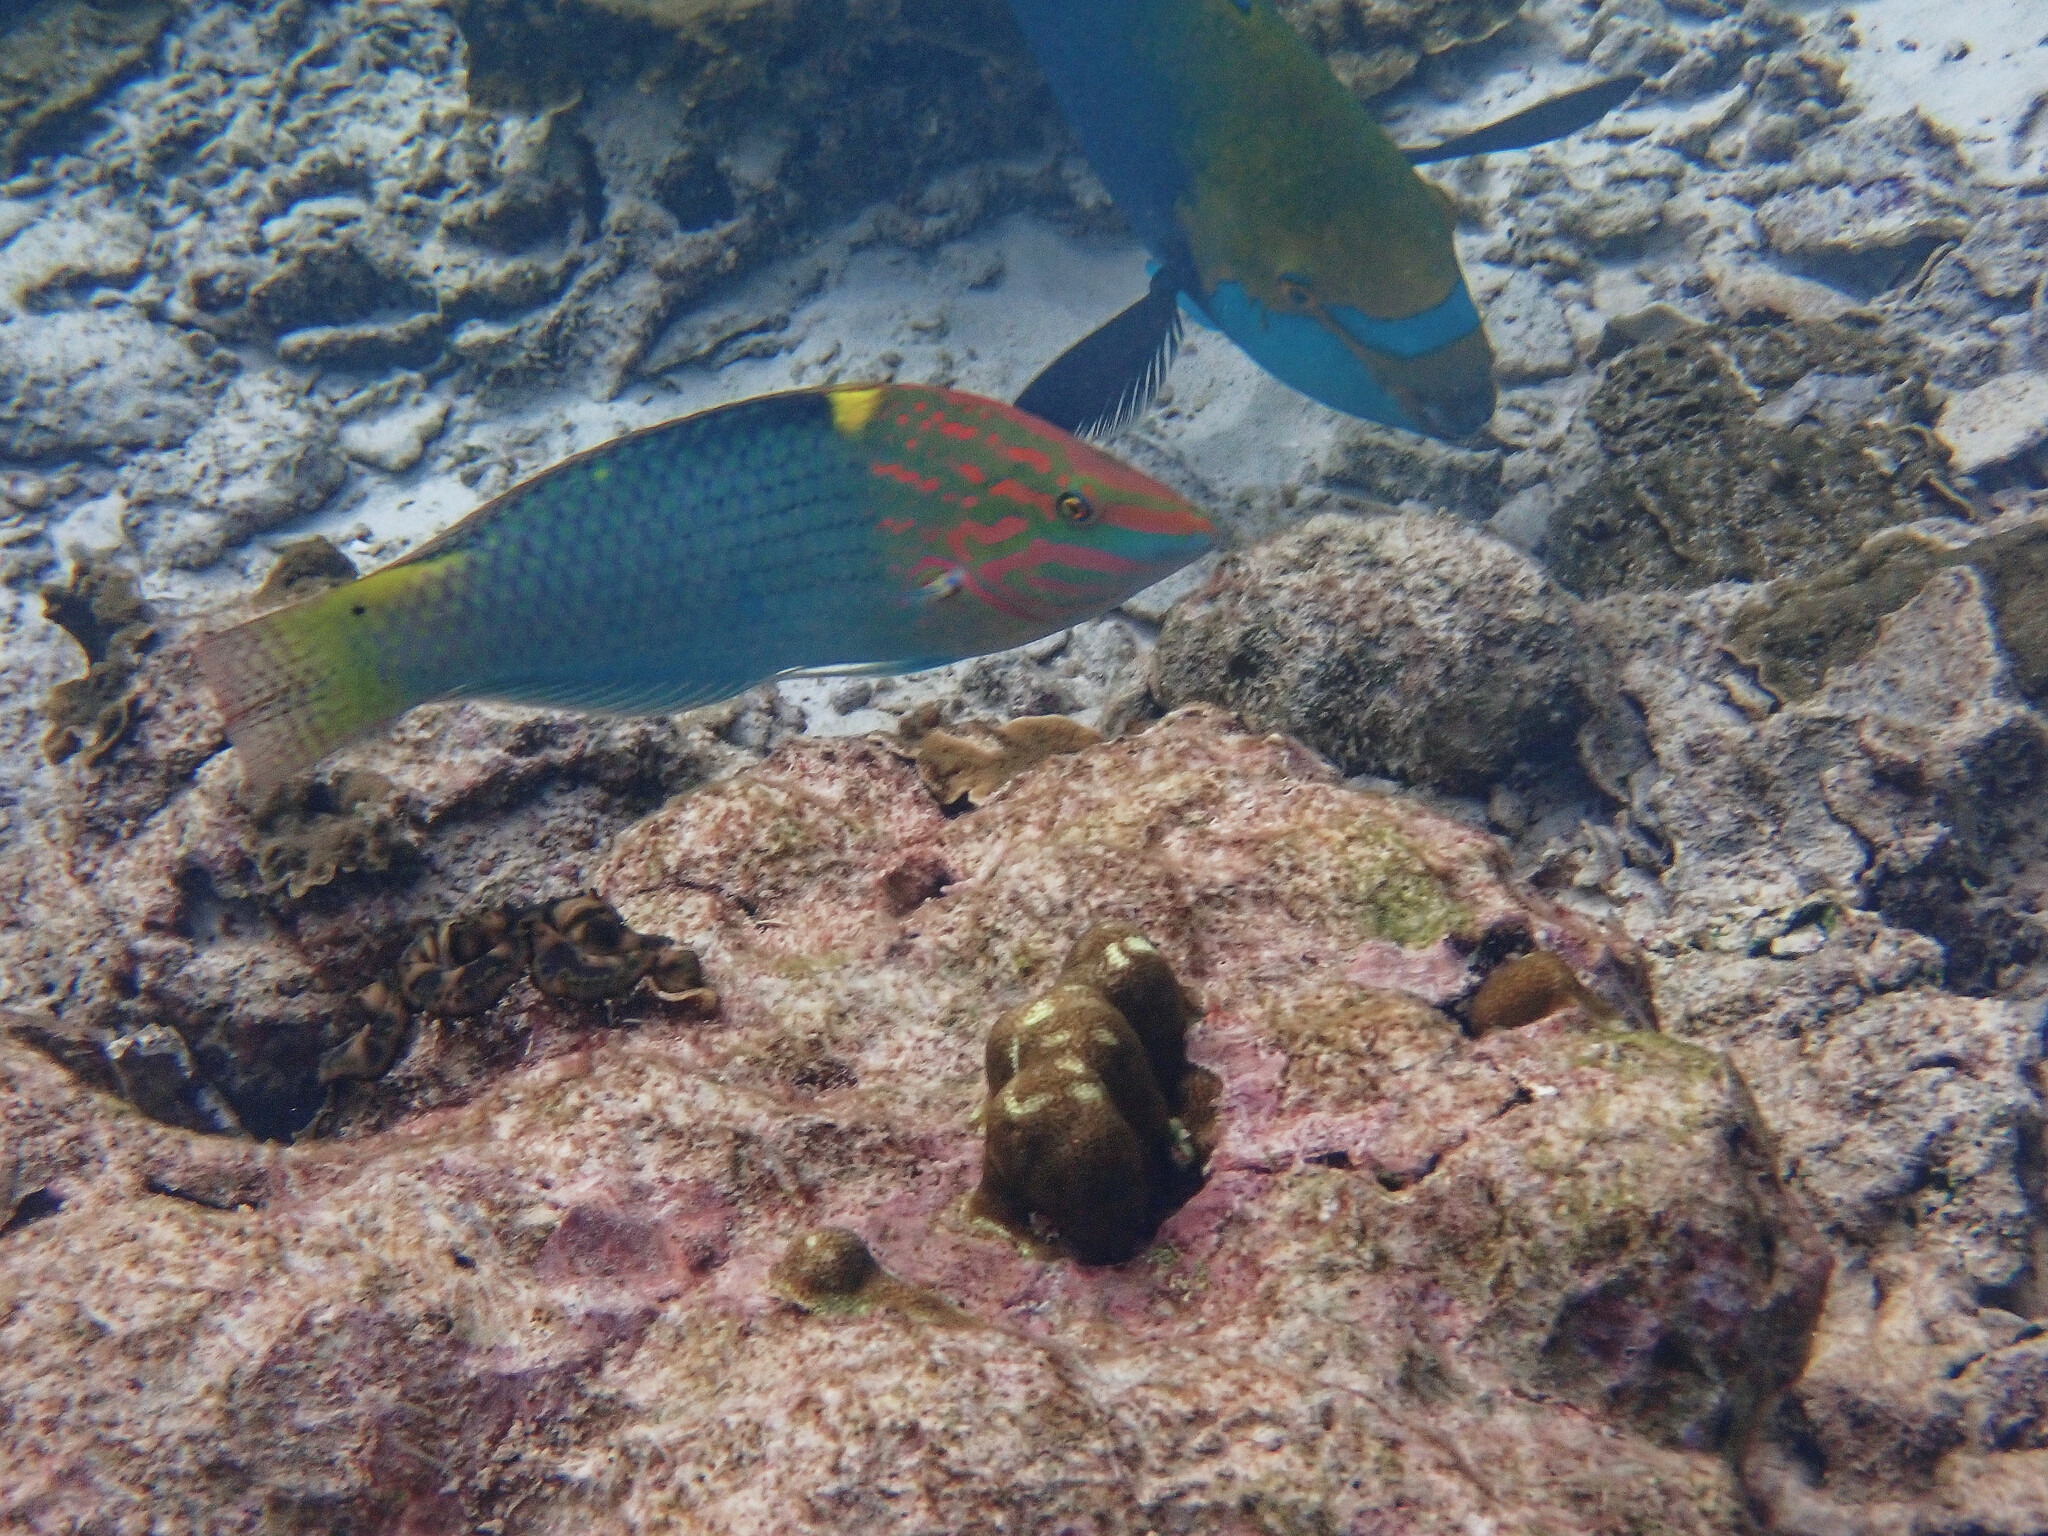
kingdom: Animalia
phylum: Chordata
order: Perciformes
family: Labridae
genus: Halichoeres
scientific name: Halichoeres hortulanus
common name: Checkerboard wrasse
